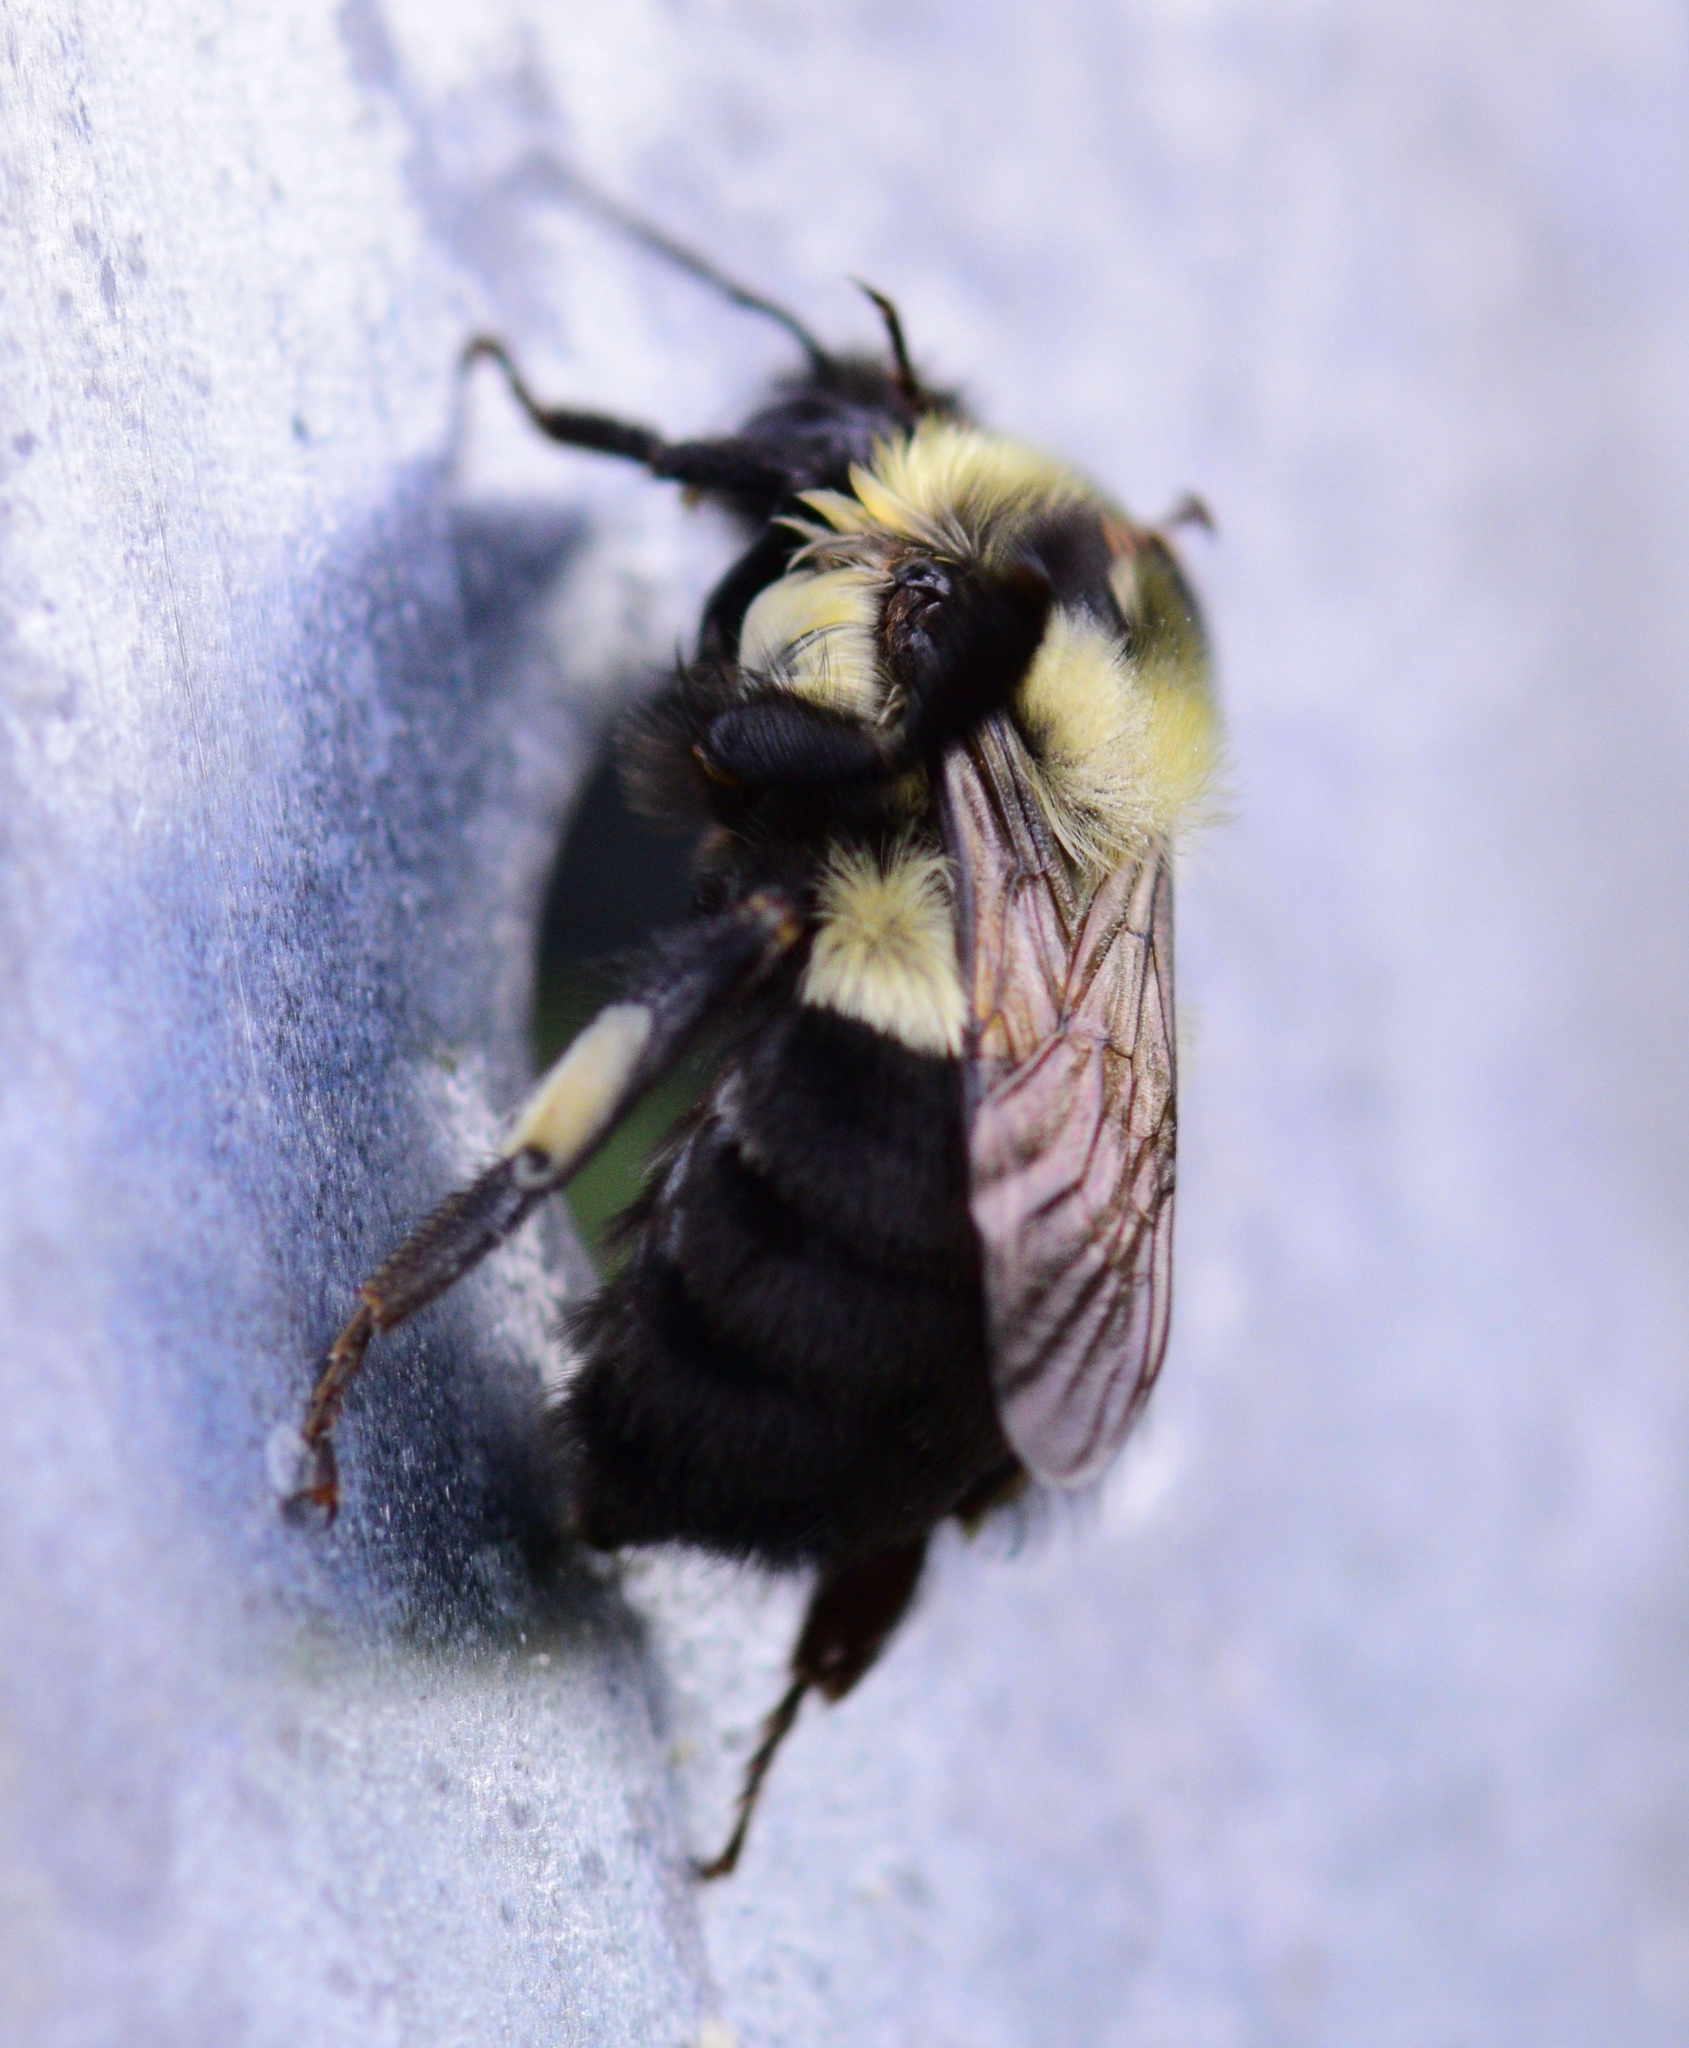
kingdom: Animalia
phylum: Arthropoda
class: Insecta
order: Hymenoptera
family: Apidae
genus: Bombus
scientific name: Bombus impatiens
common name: Common eastern bumble bee
